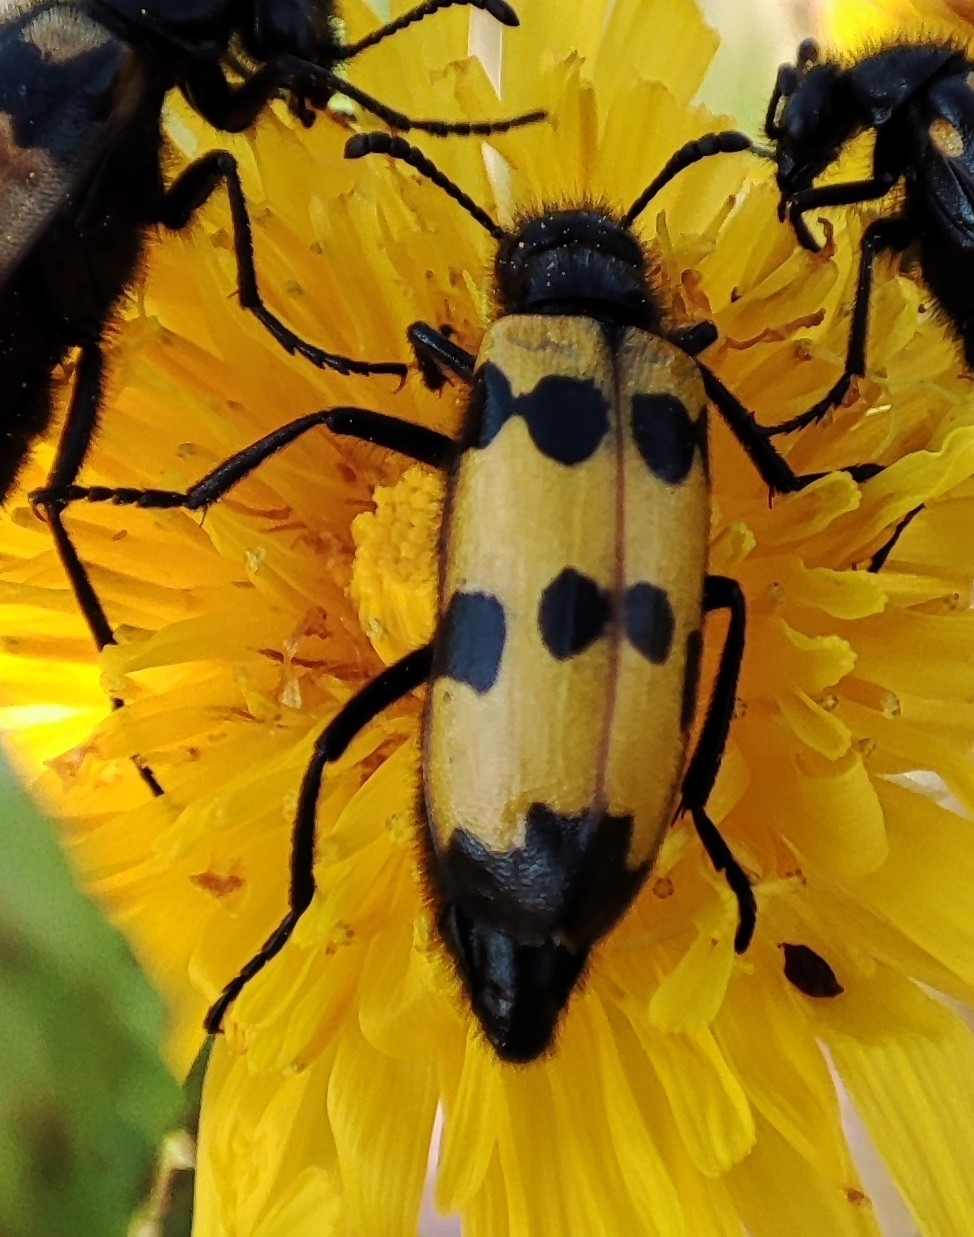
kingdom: Animalia
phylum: Arthropoda
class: Insecta
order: Coleoptera
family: Meloidae
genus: Mylabris
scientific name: Mylabris quadripunctata
